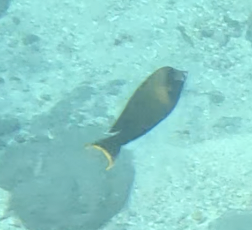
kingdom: Animalia
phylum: Chordata
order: Perciformes
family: Acanthuridae
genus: Acanthurus
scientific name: Acanthurus pyroferus
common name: Chocolate surgeonfish
